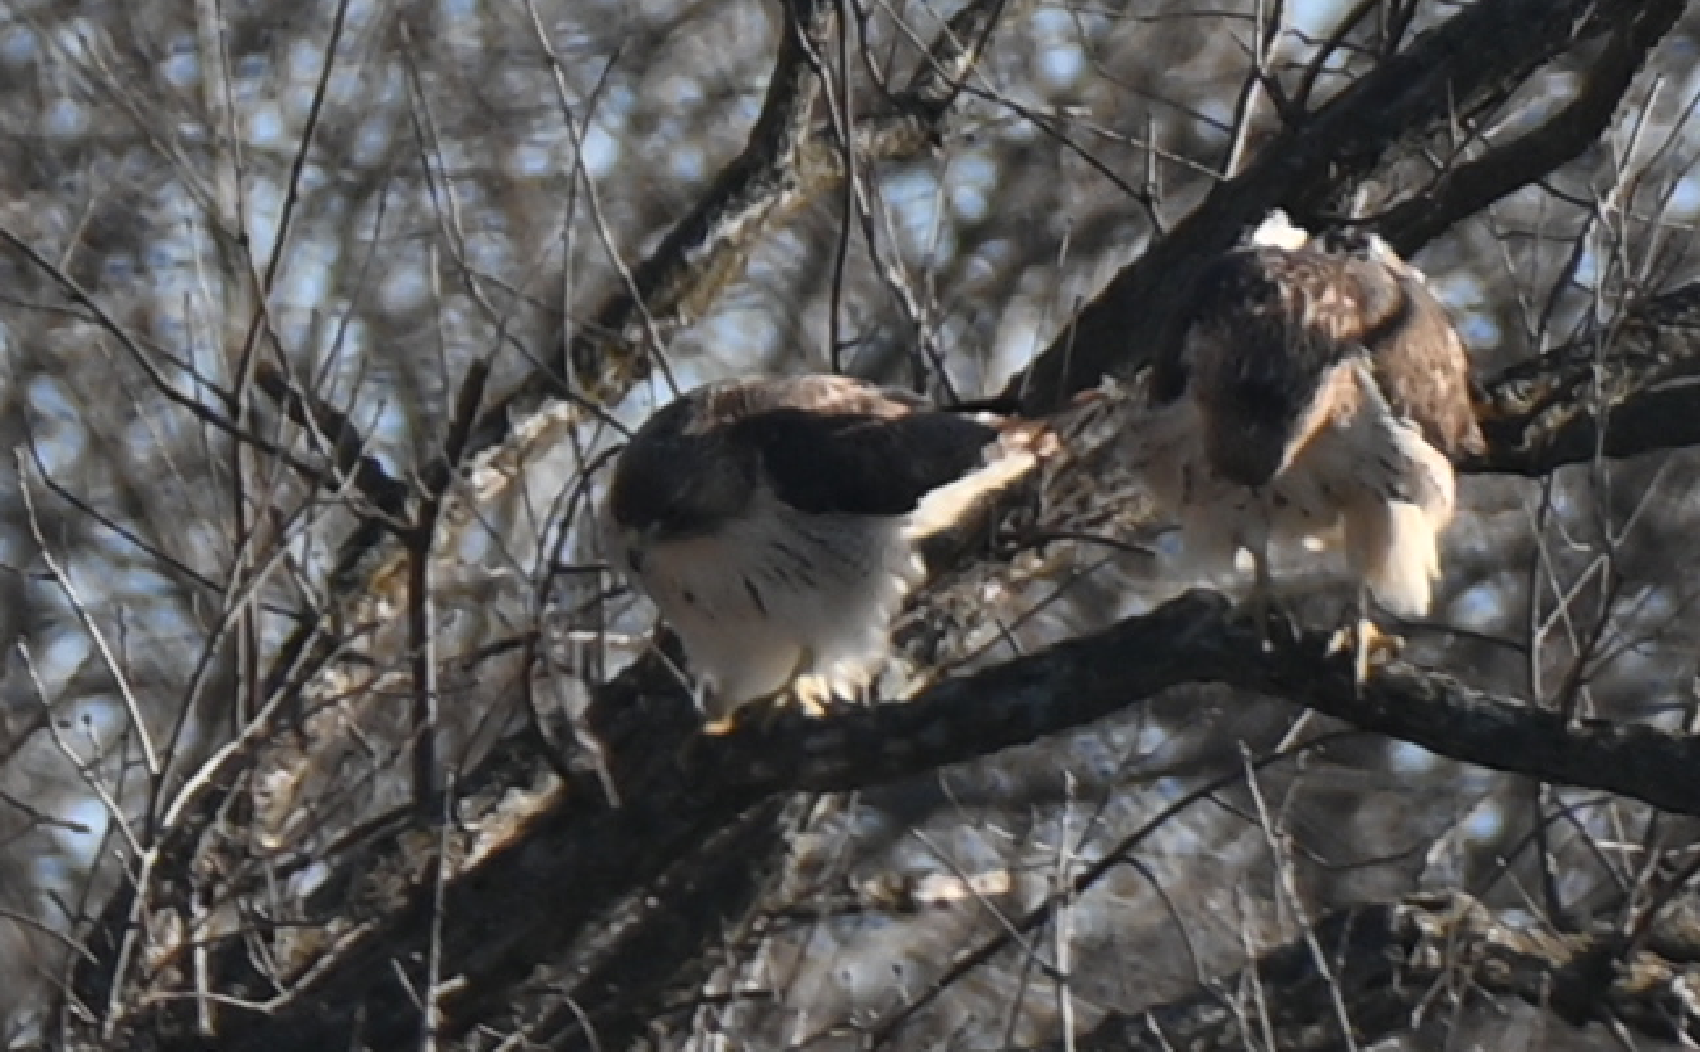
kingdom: Animalia
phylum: Chordata
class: Aves
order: Accipitriformes
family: Accipitridae
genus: Buteo
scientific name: Buteo jamaicensis
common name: Red-tailed hawk
